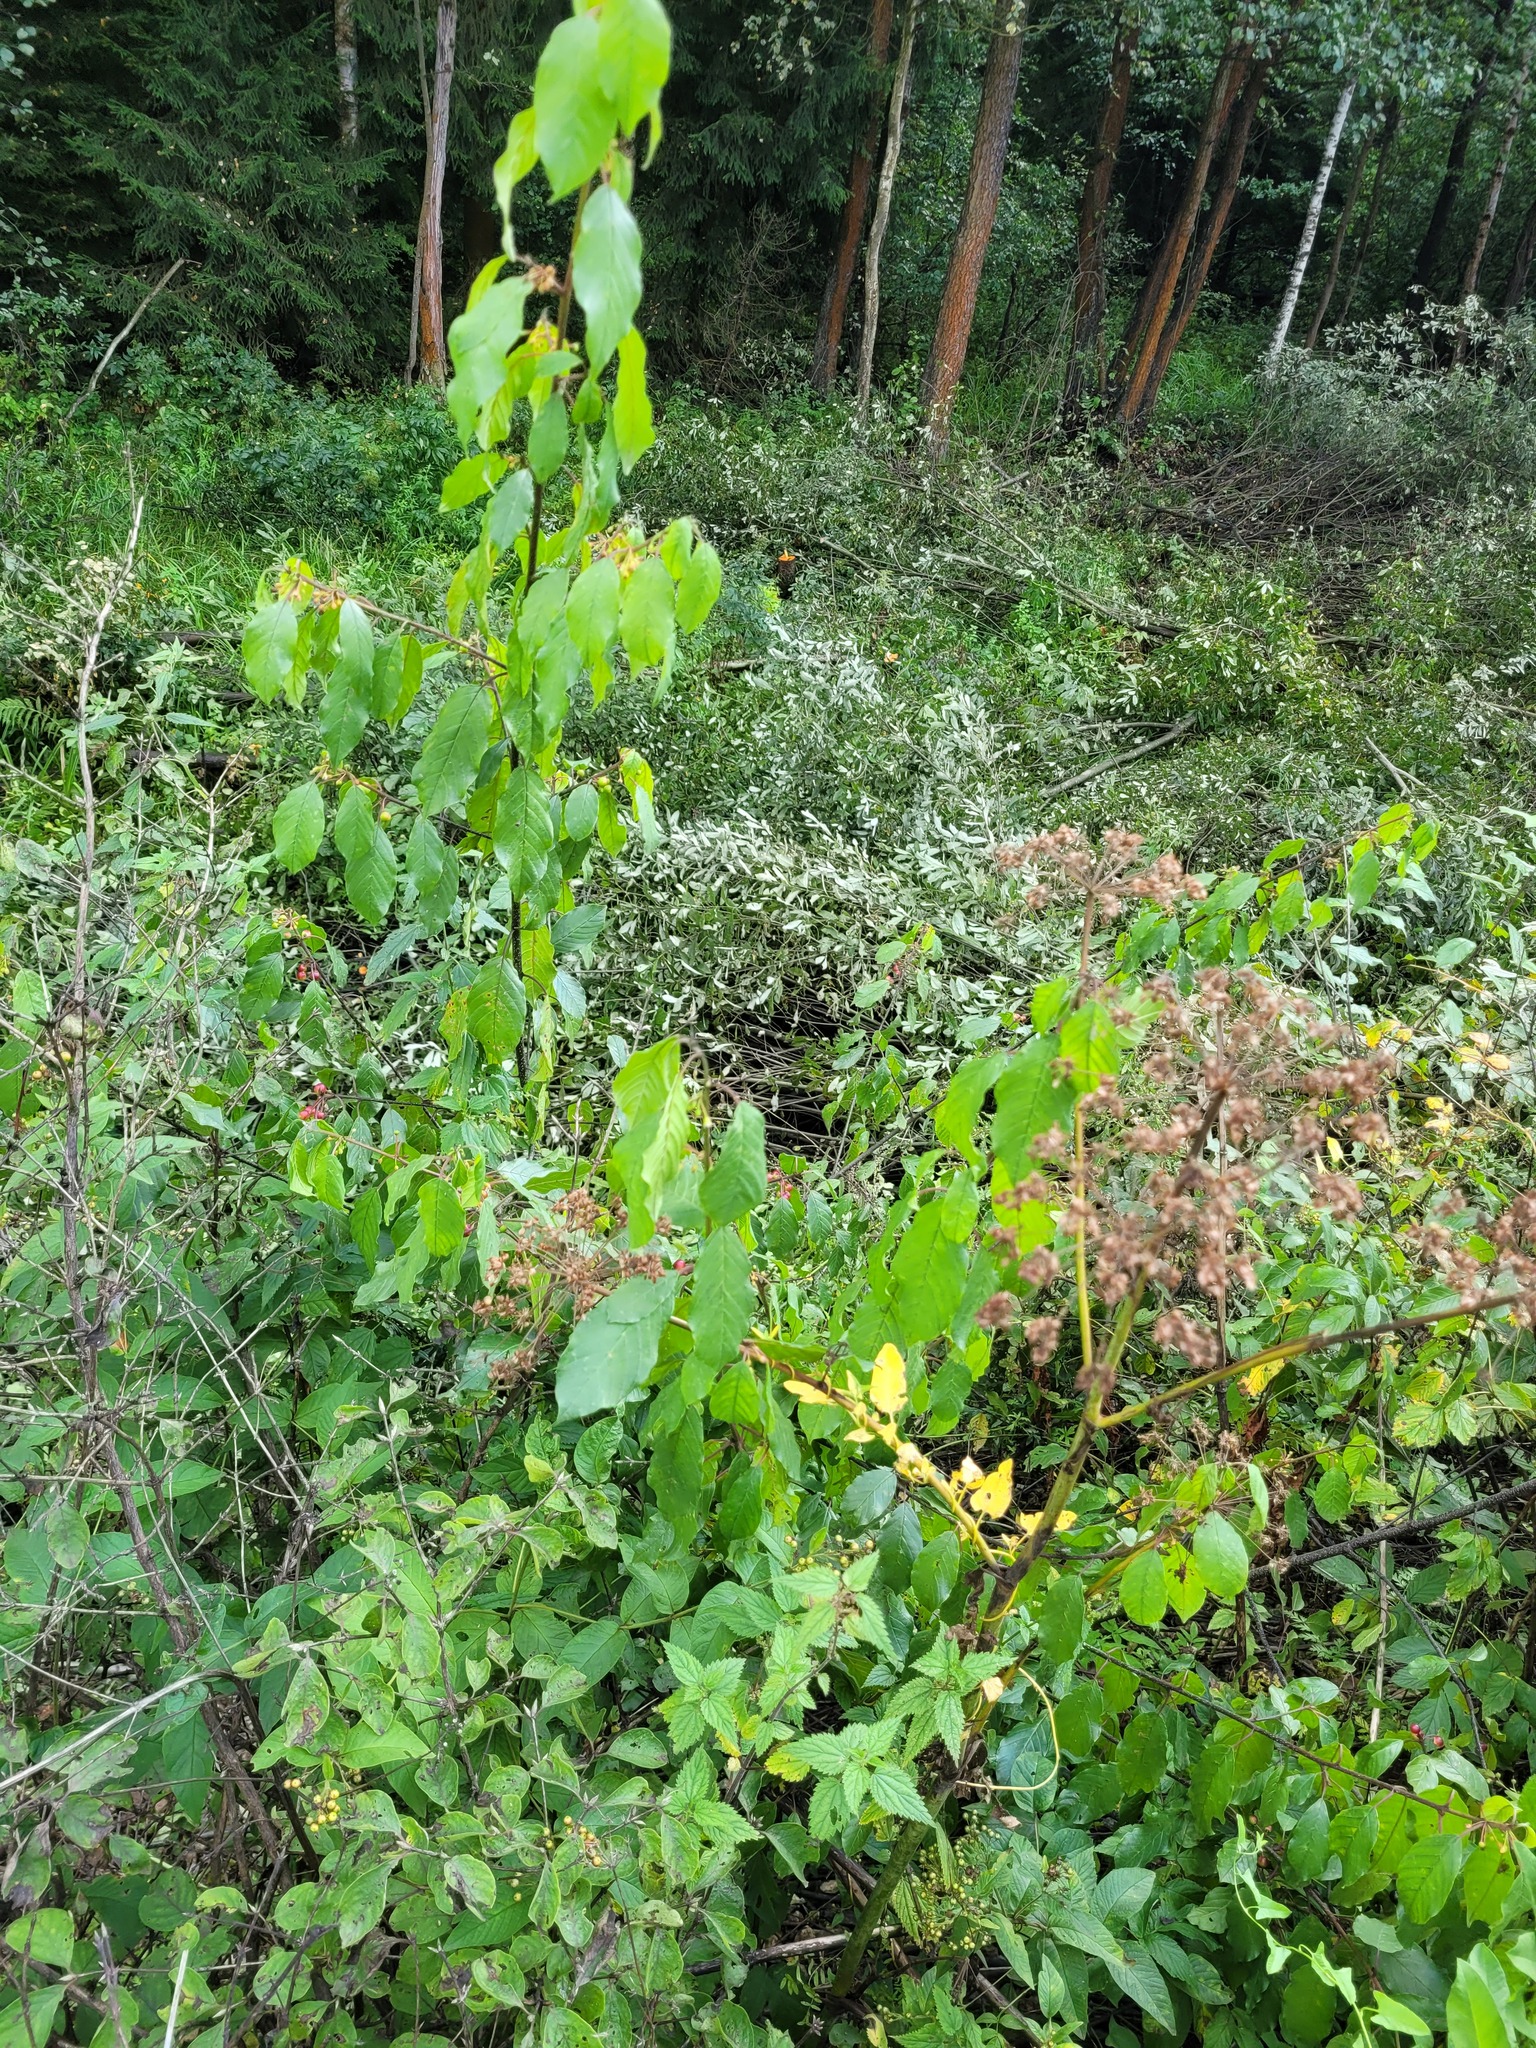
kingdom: Plantae
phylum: Tracheophyta
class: Magnoliopsida
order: Rosales
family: Rhamnaceae
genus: Frangula
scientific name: Frangula alnus
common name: Alder buckthorn
